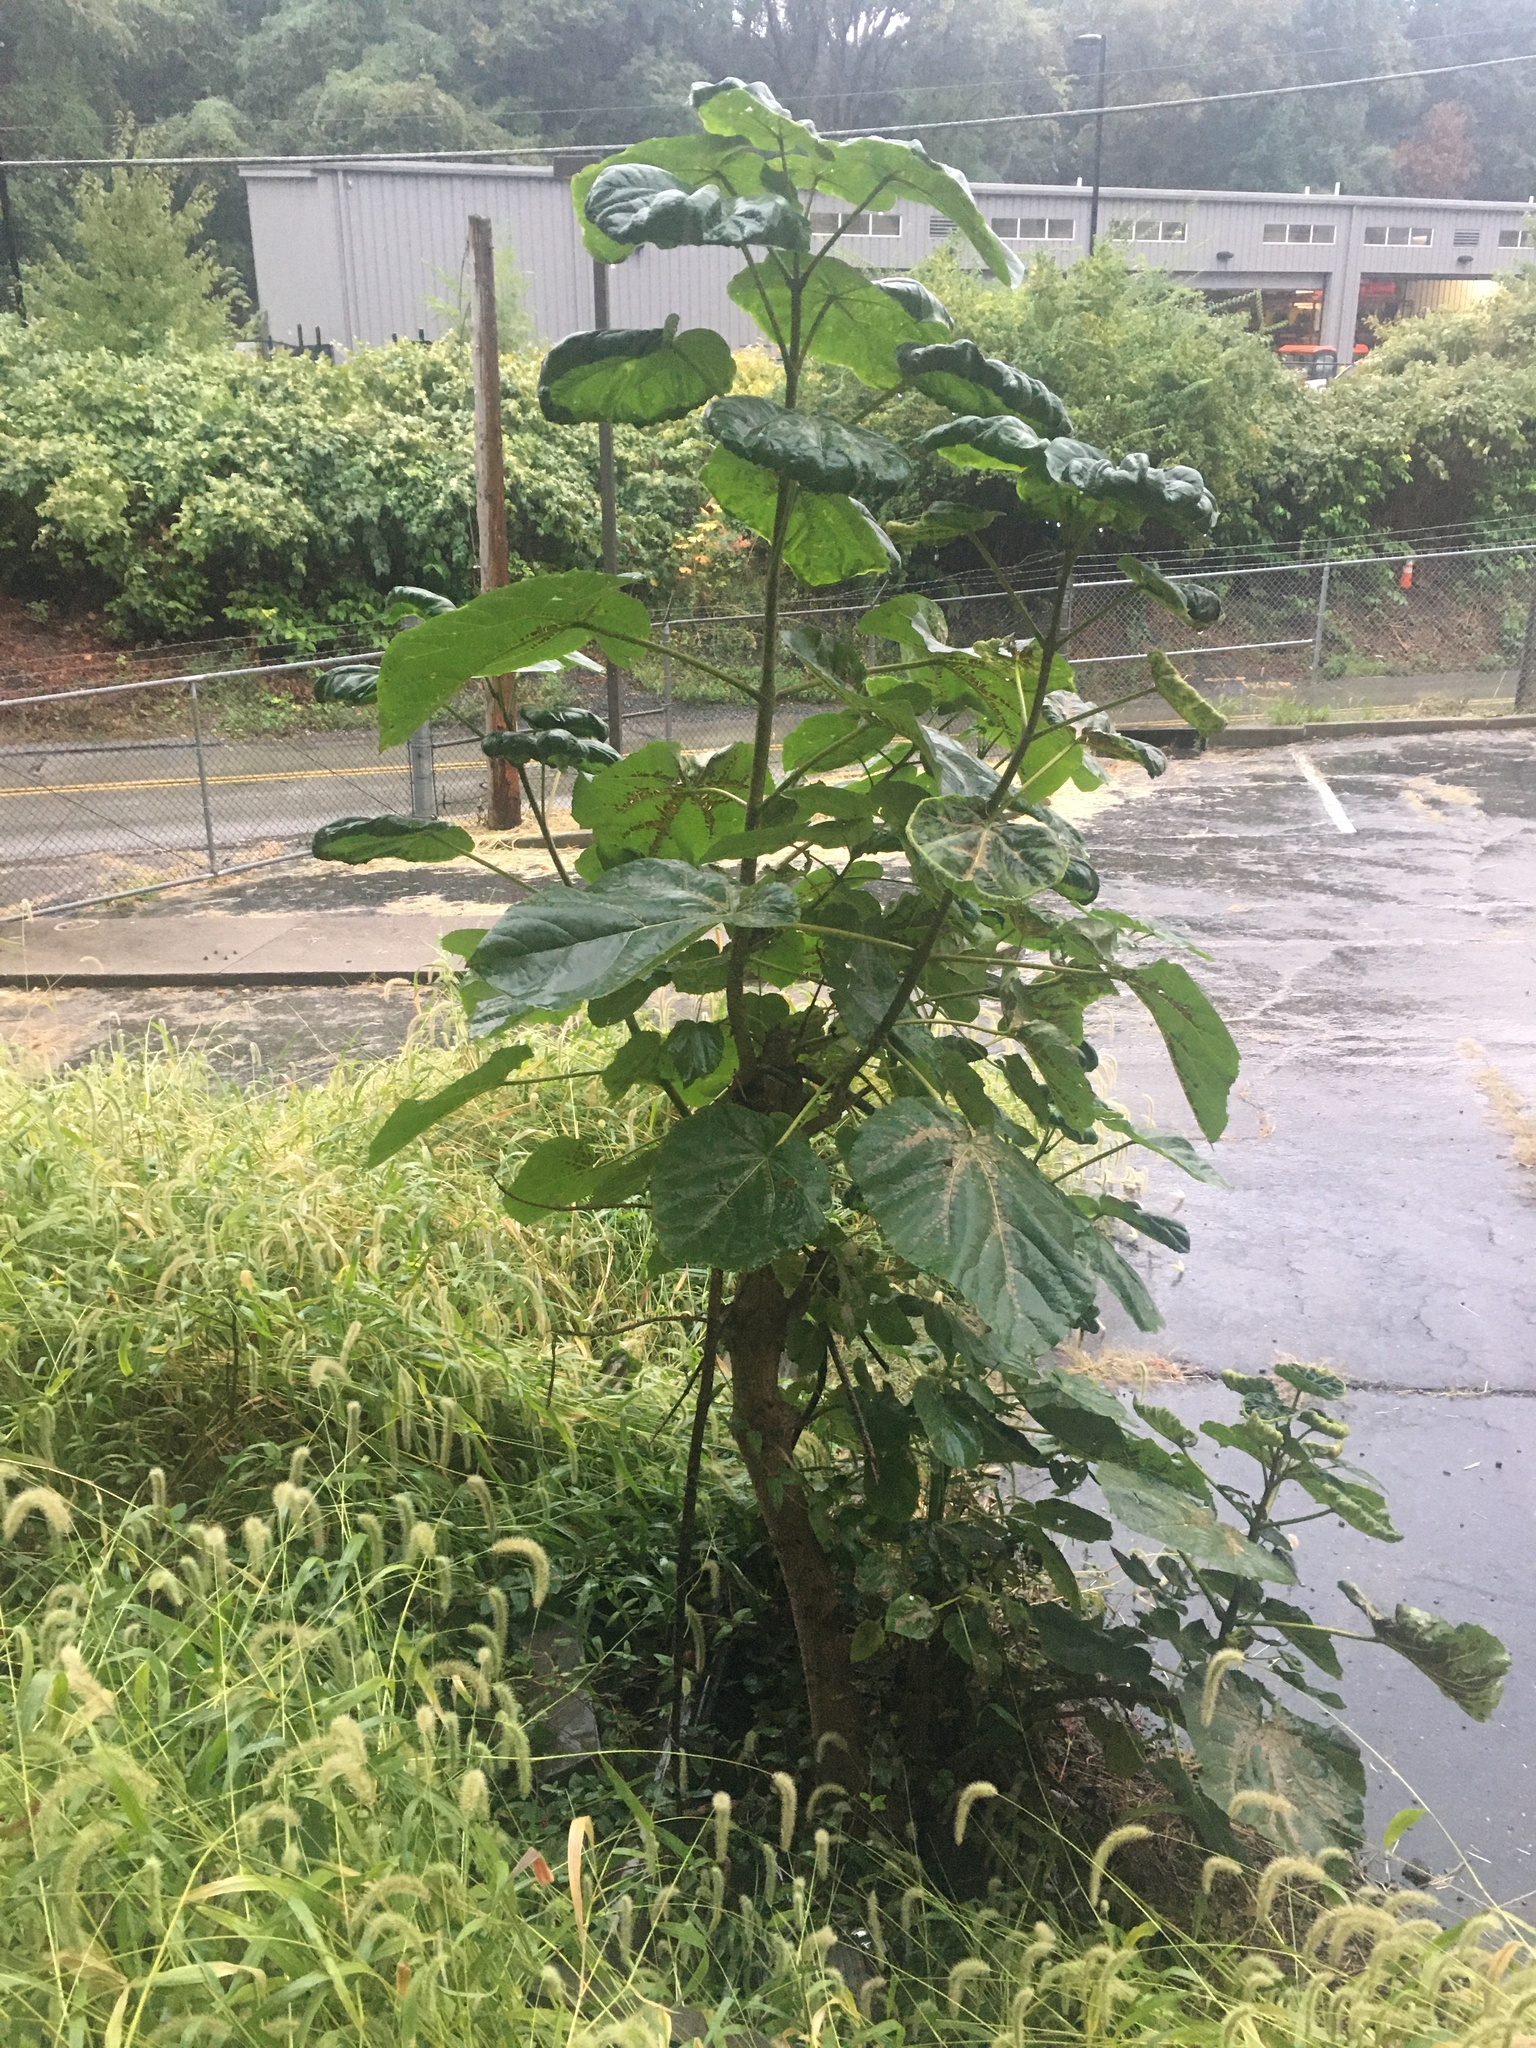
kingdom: Plantae
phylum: Tracheophyta
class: Magnoliopsida
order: Lamiales
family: Paulowniaceae
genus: Paulownia
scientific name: Paulownia tomentosa
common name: Foxglove-tree
